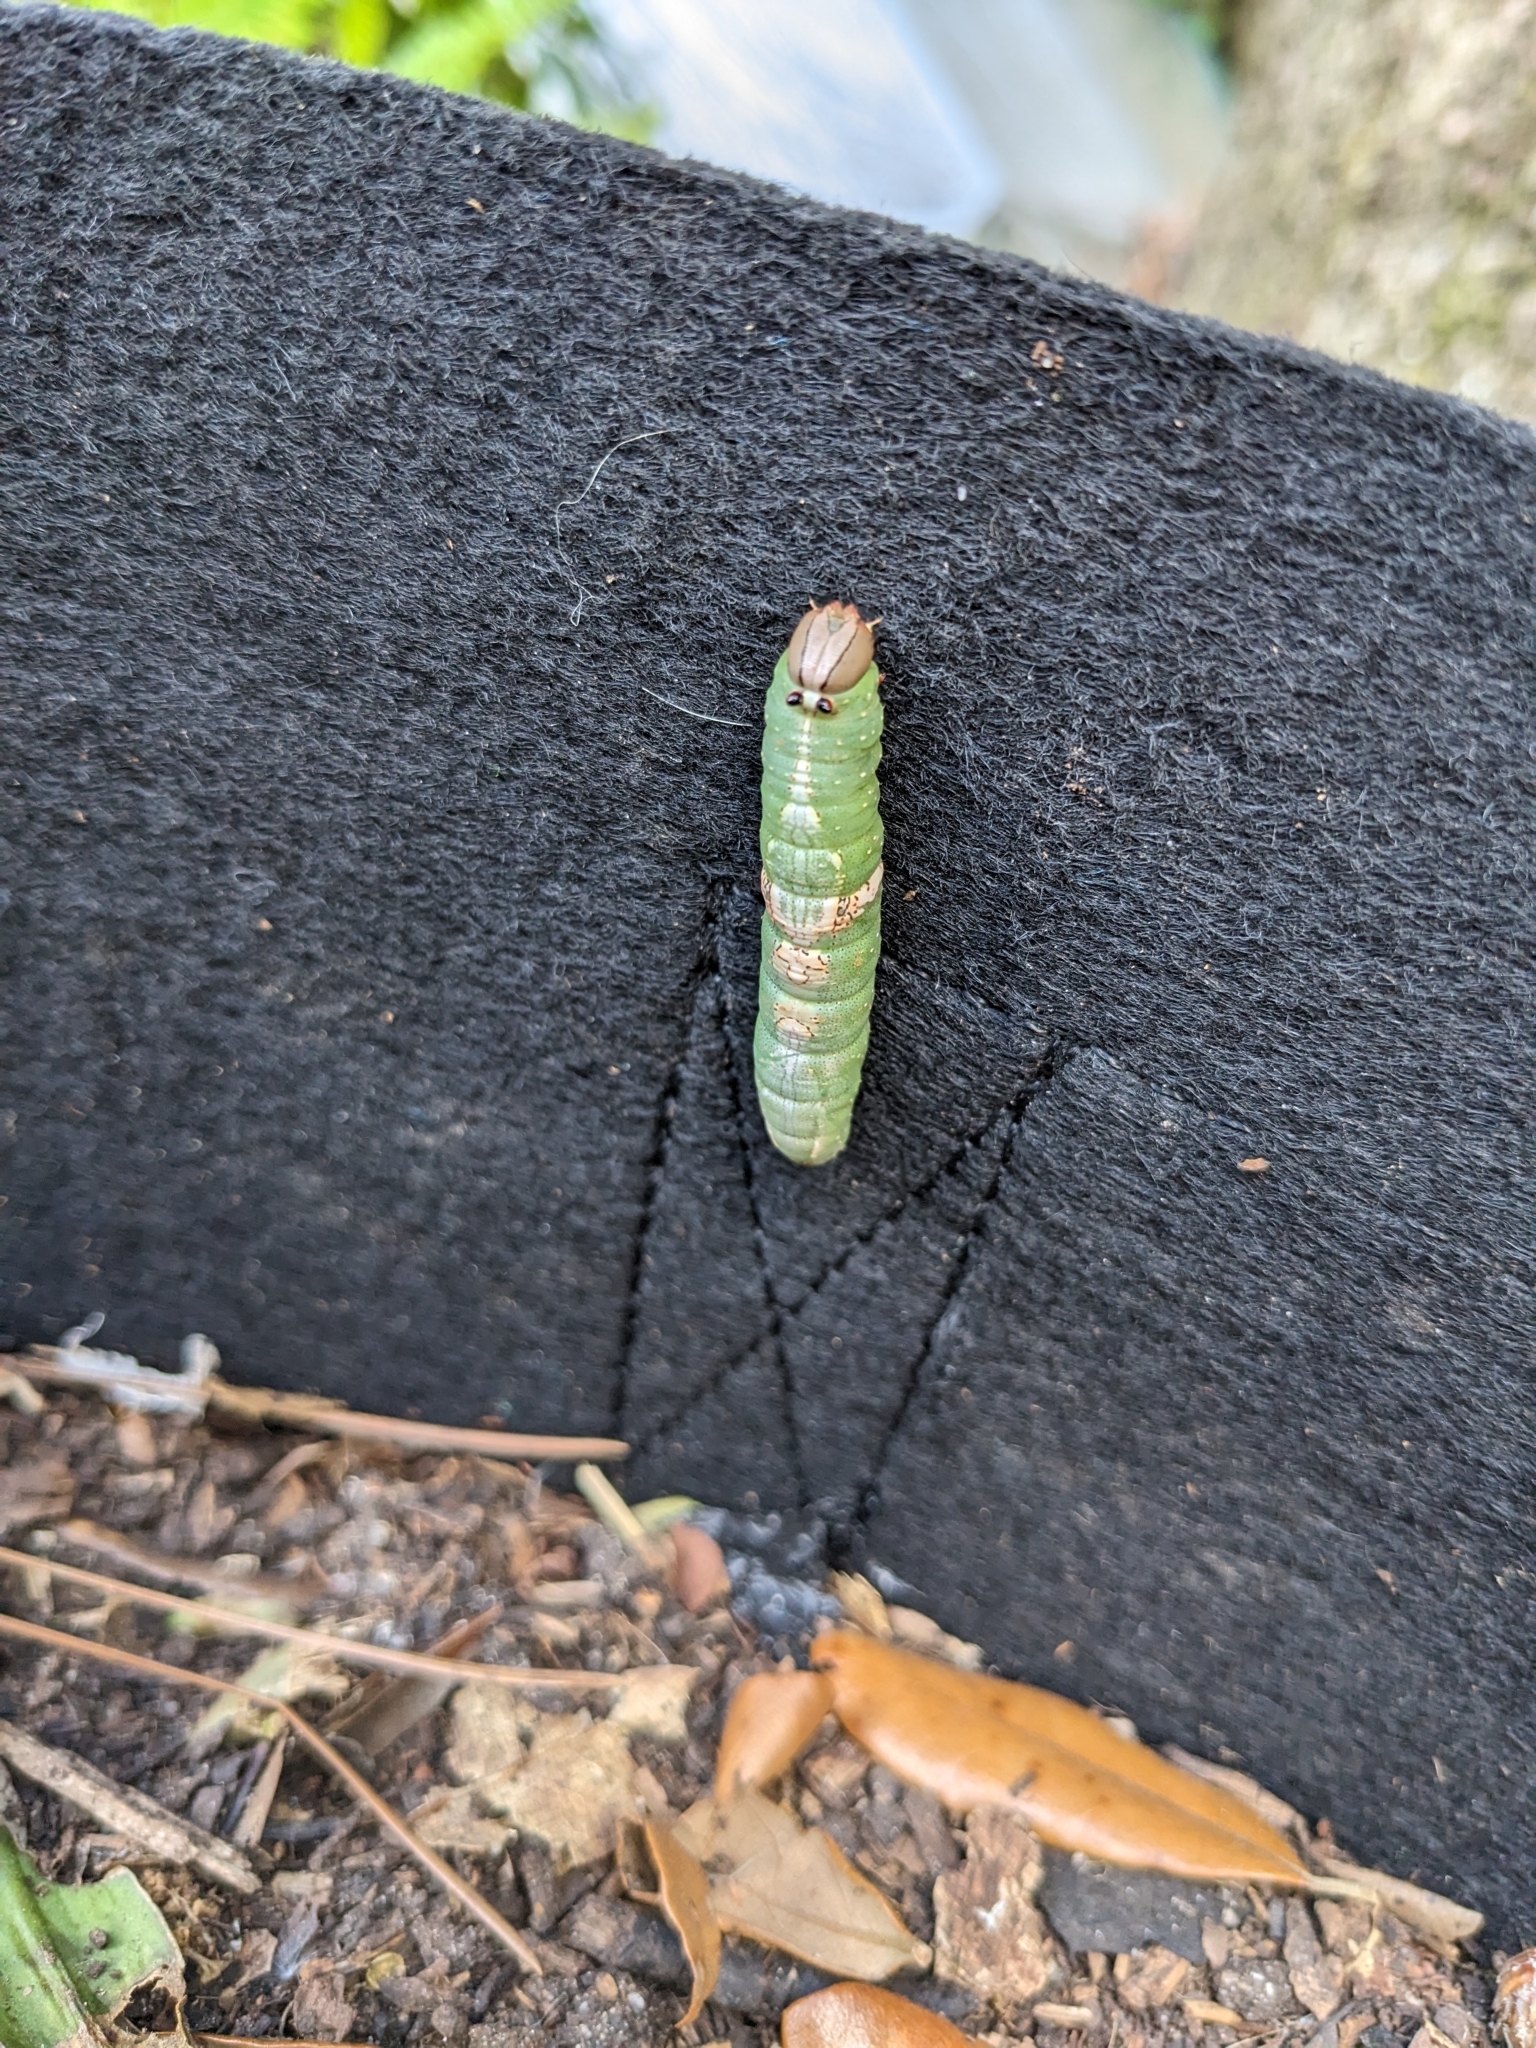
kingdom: Animalia
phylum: Arthropoda
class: Insecta
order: Lepidoptera
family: Notodontidae
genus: Heterocampa
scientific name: Heterocampa
